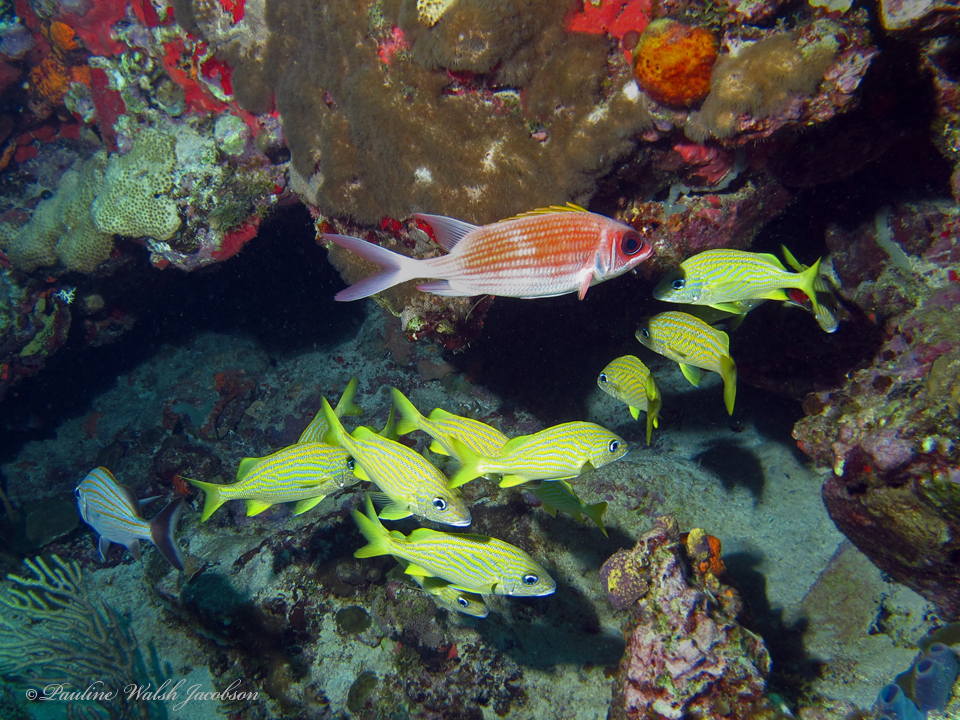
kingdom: Animalia
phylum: Chordata
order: Perciformes
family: Haemulidae
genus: Haemulon
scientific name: Haemulon flavolineatum
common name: French grunt
